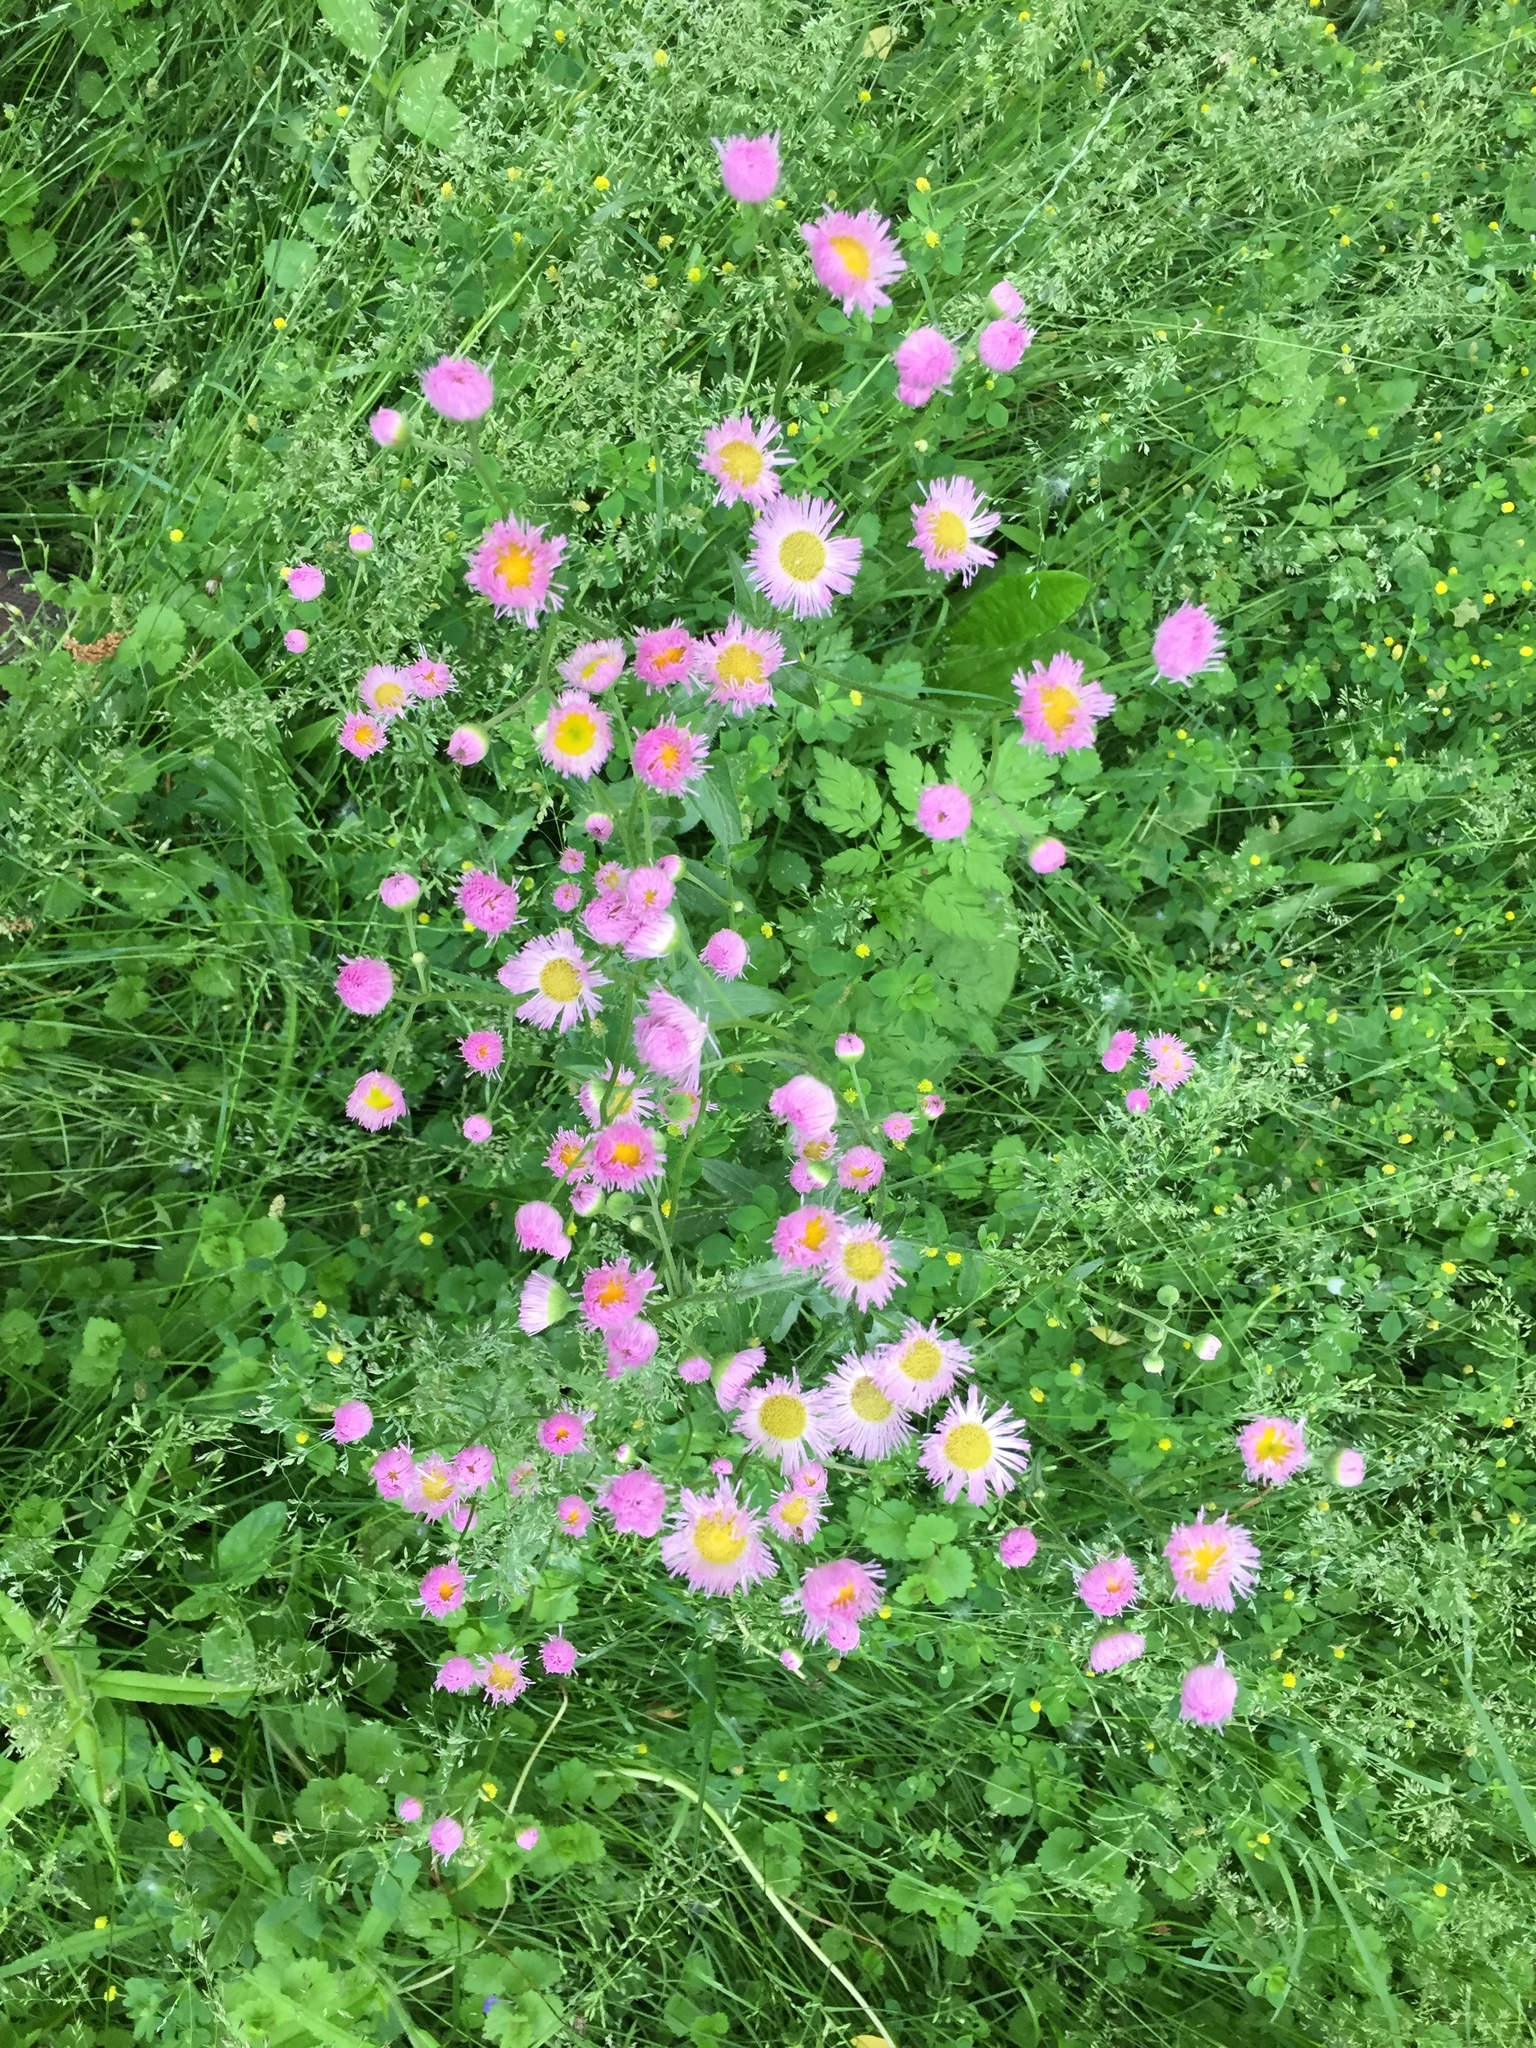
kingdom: Plantae
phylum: Tracheophyta
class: Magnoliopsida
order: Asterales
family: Asteraceae
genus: Erigeron
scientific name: Erigeron philadelphicus
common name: Robin's-plantain
